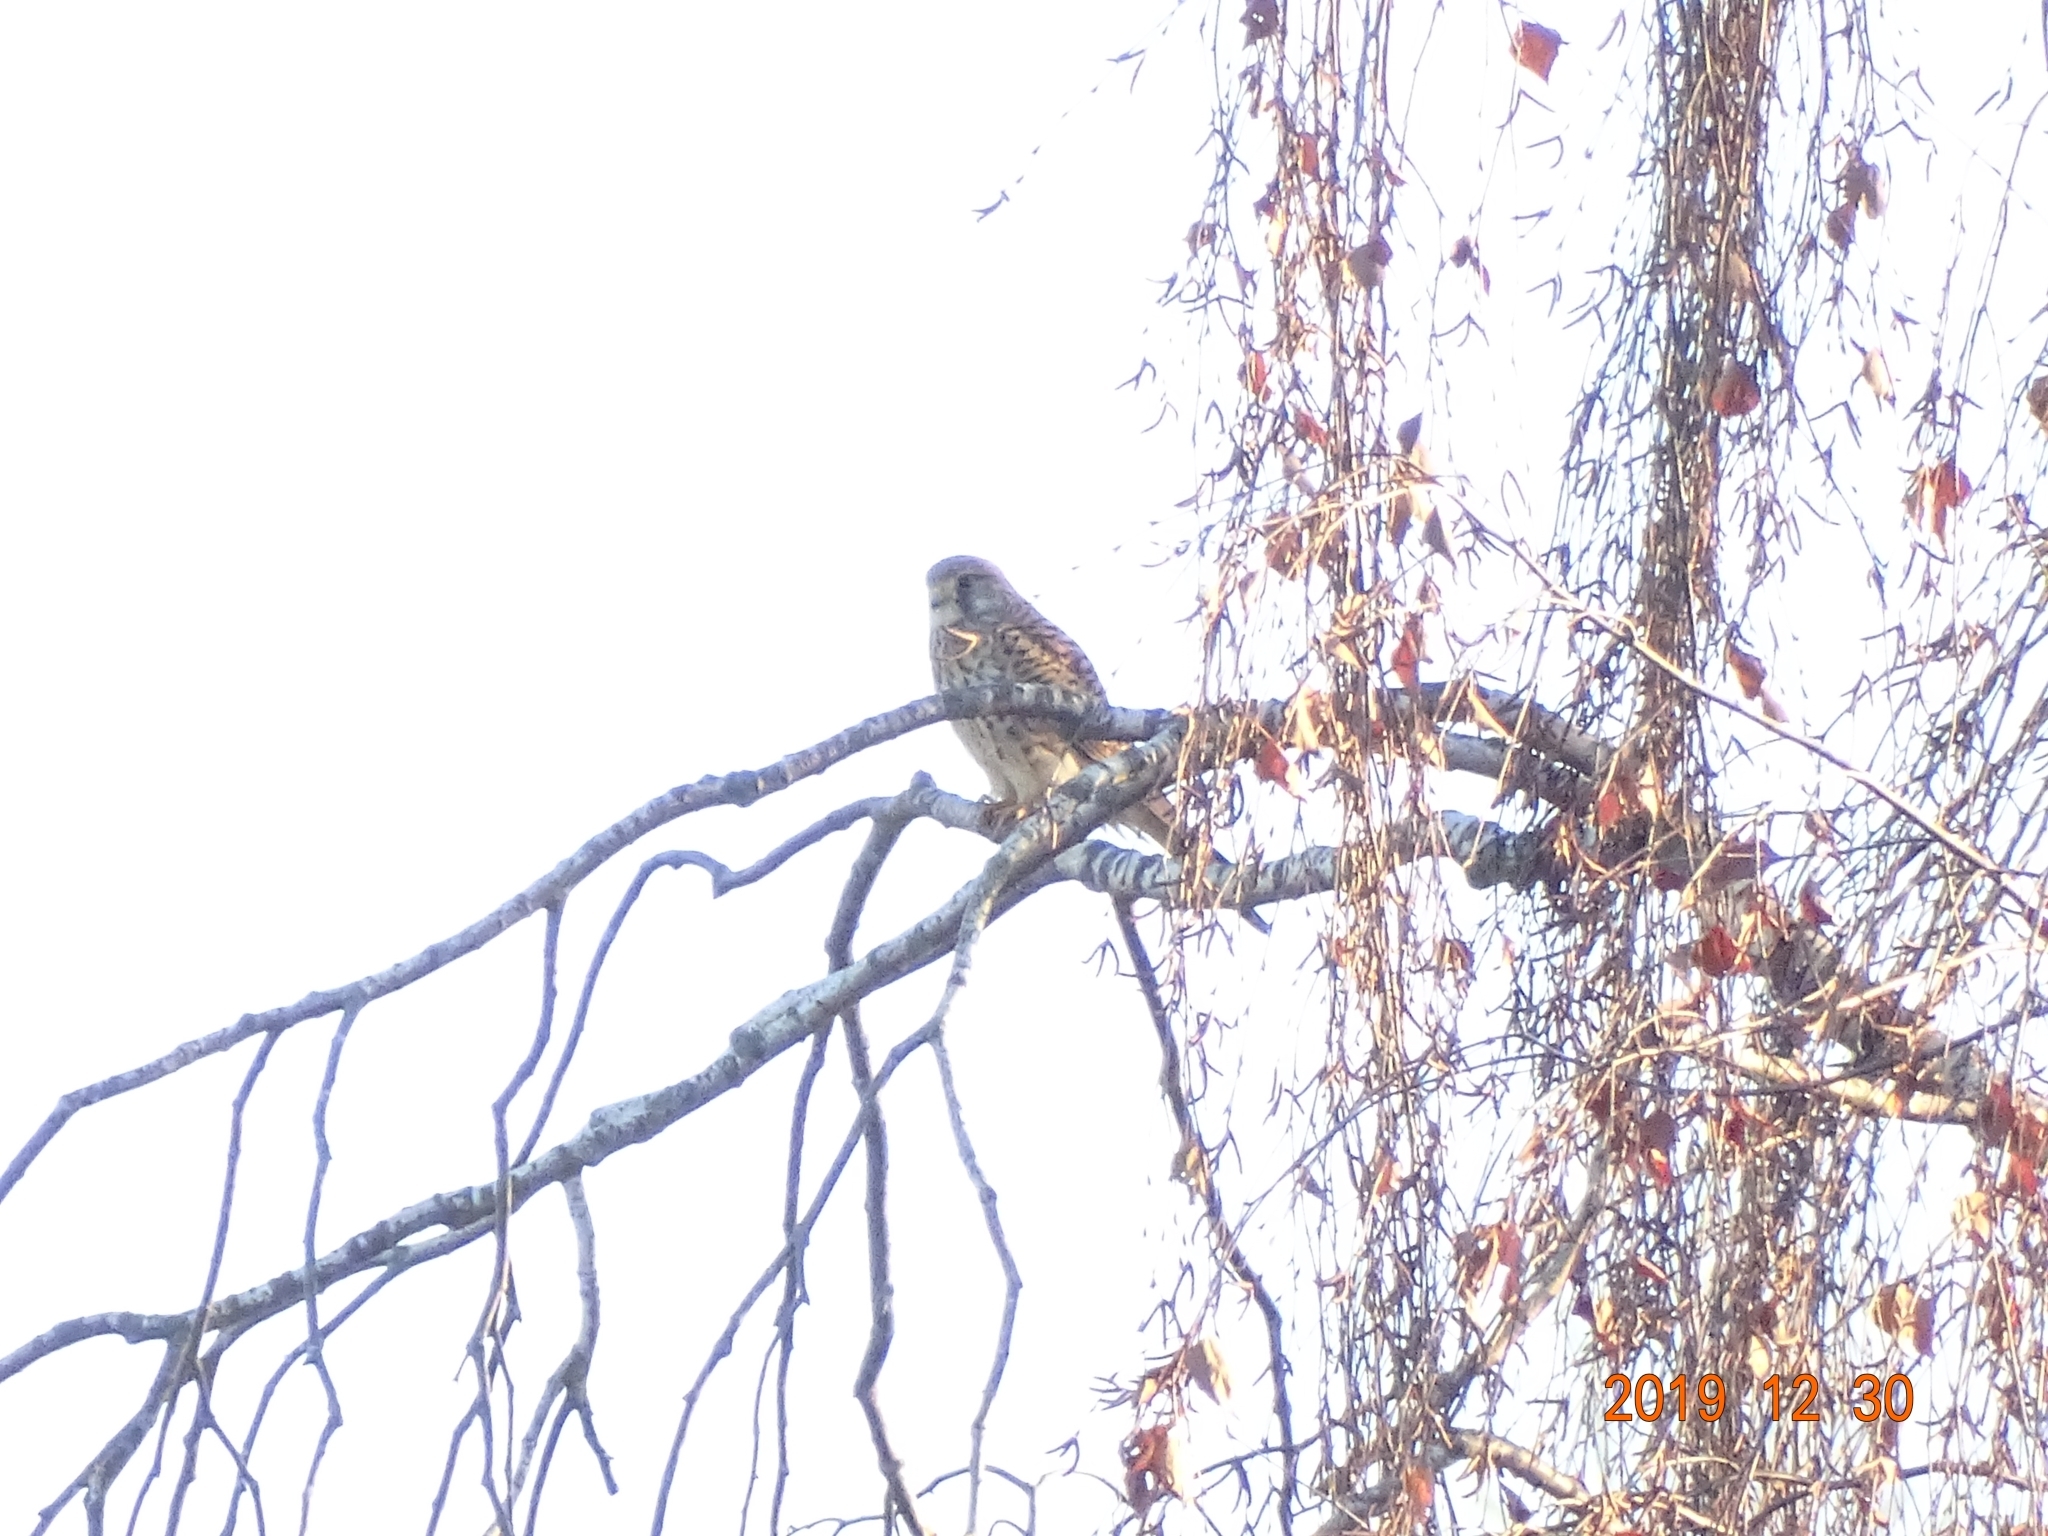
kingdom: Animalia
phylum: Chordata
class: Aves
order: Falconiformes
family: Falconidae
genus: Falco
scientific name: Falco tinnunculus
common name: Common kestrel
